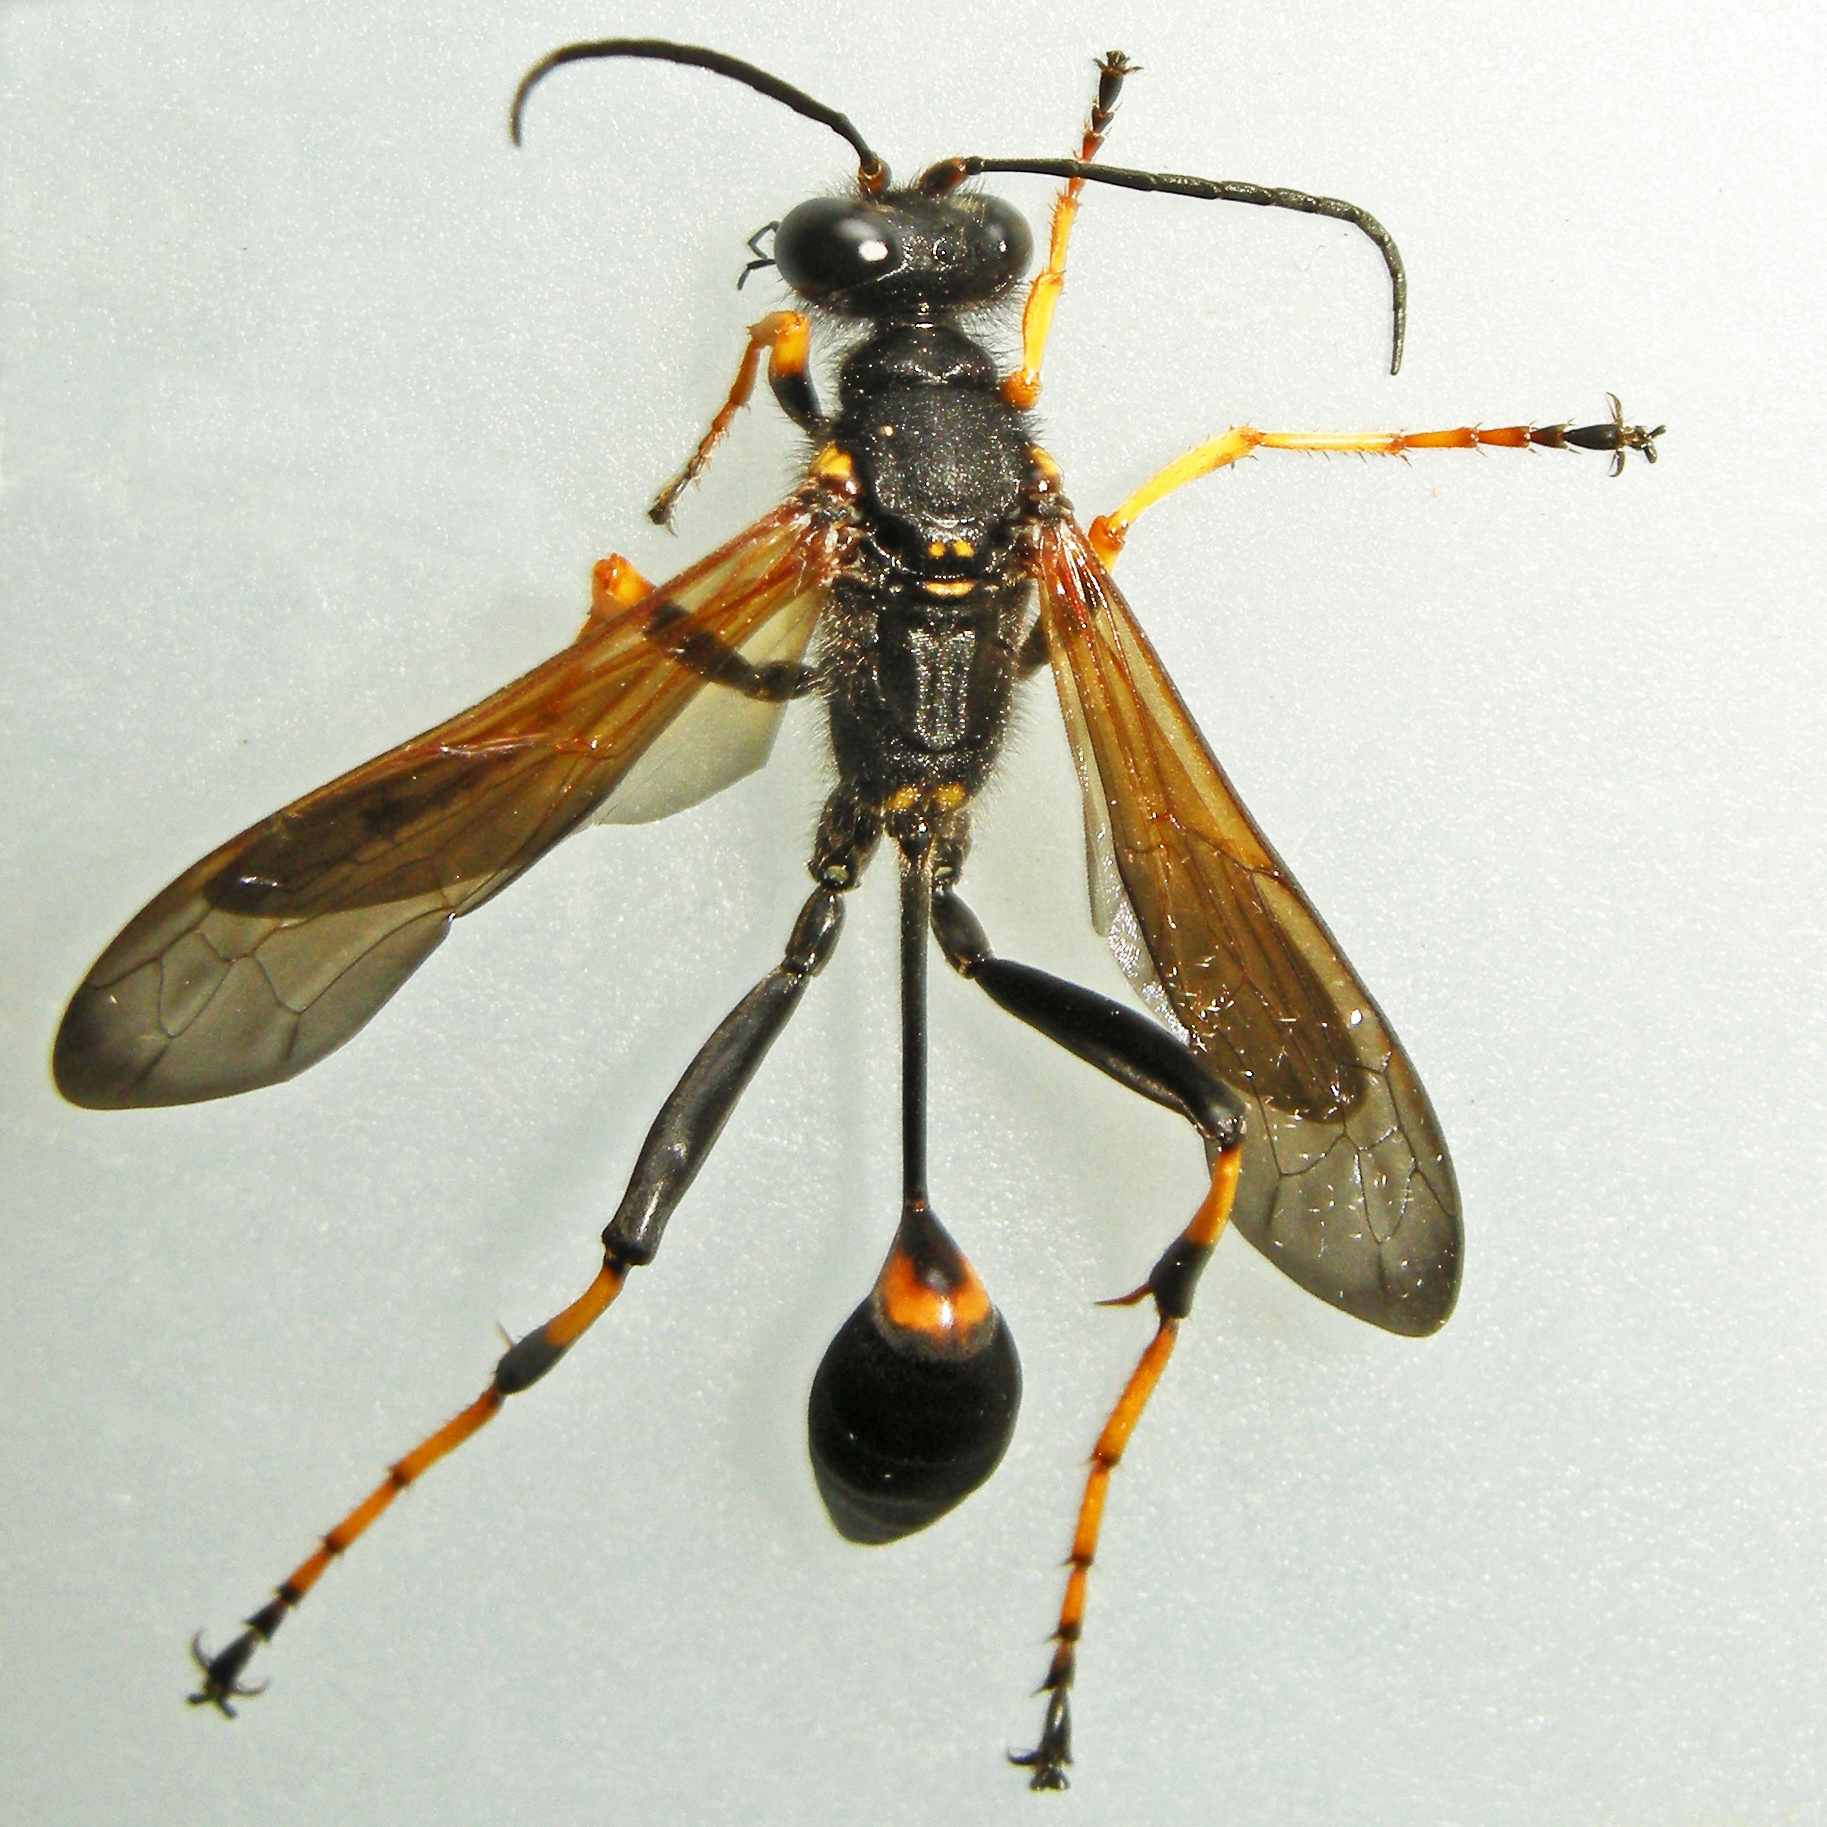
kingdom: Animalia
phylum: Arthropoda
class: Insecta
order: Hymenoptera
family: Sphecidae
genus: Sceliphron
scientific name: Sceliphron caementarium
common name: Mud dauber
